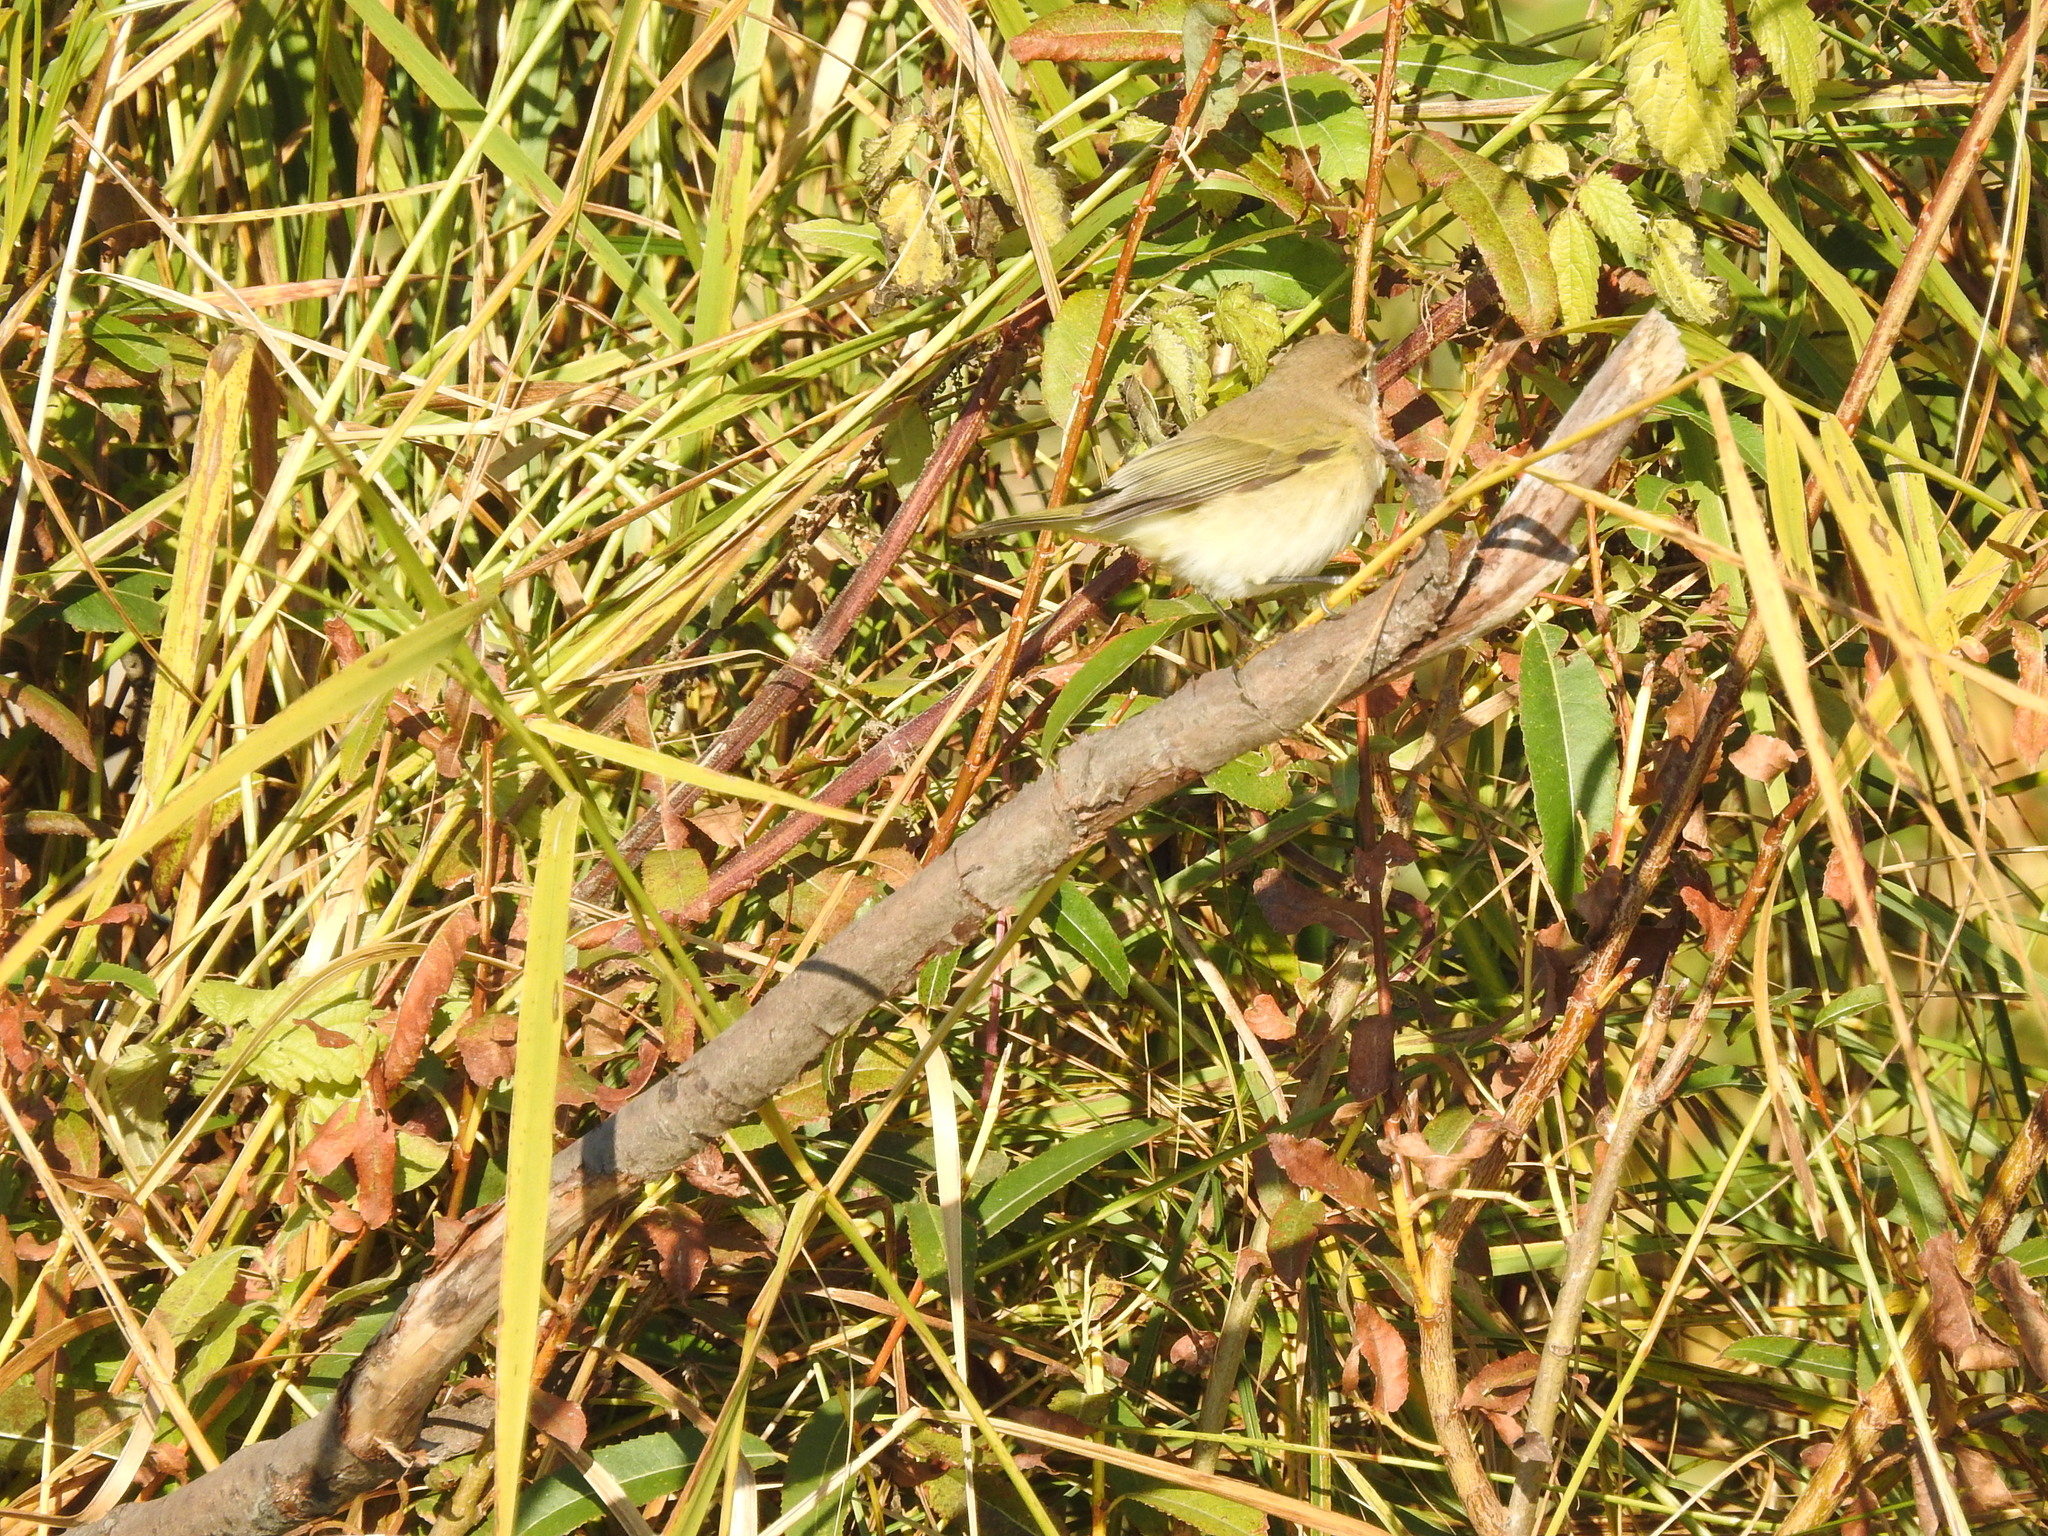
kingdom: Animalia
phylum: Chordata
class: Aves
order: Passeriformes
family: Phylloscopidae
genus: Phylloscopus
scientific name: Phylloscopus collybita
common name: Common chiffchaff
